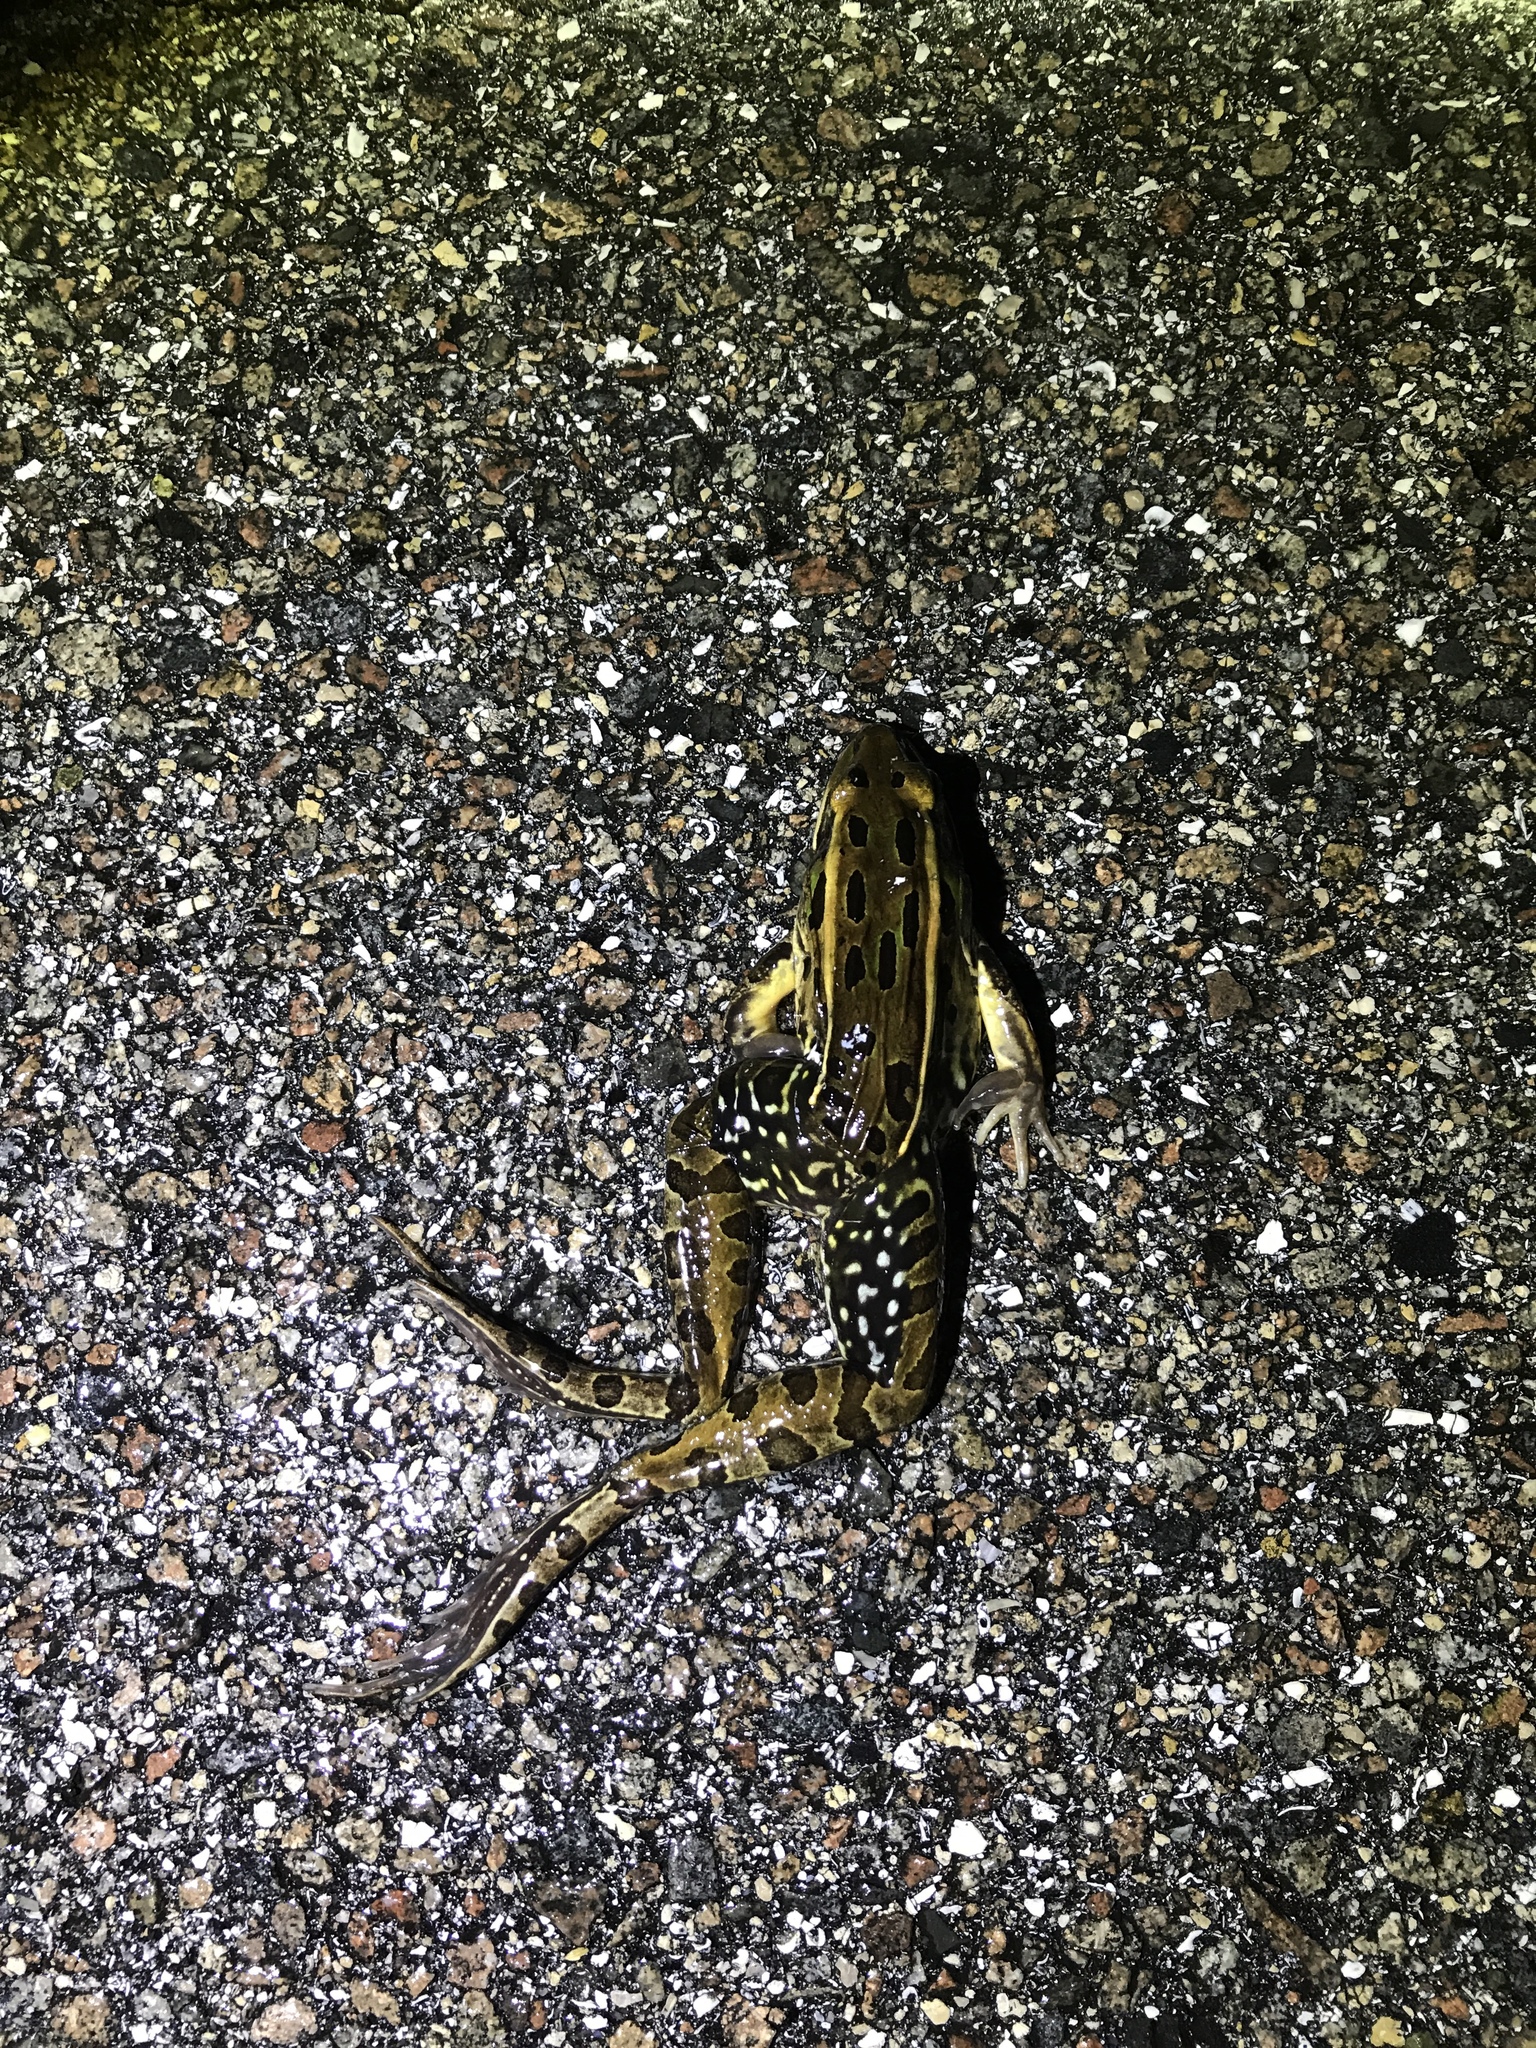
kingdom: Animalia
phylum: Chordata
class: Amphibia
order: Anura
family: Ranidae
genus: Lithobates
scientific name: Lithobates sphenocephalus
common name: Southern leopard frog
